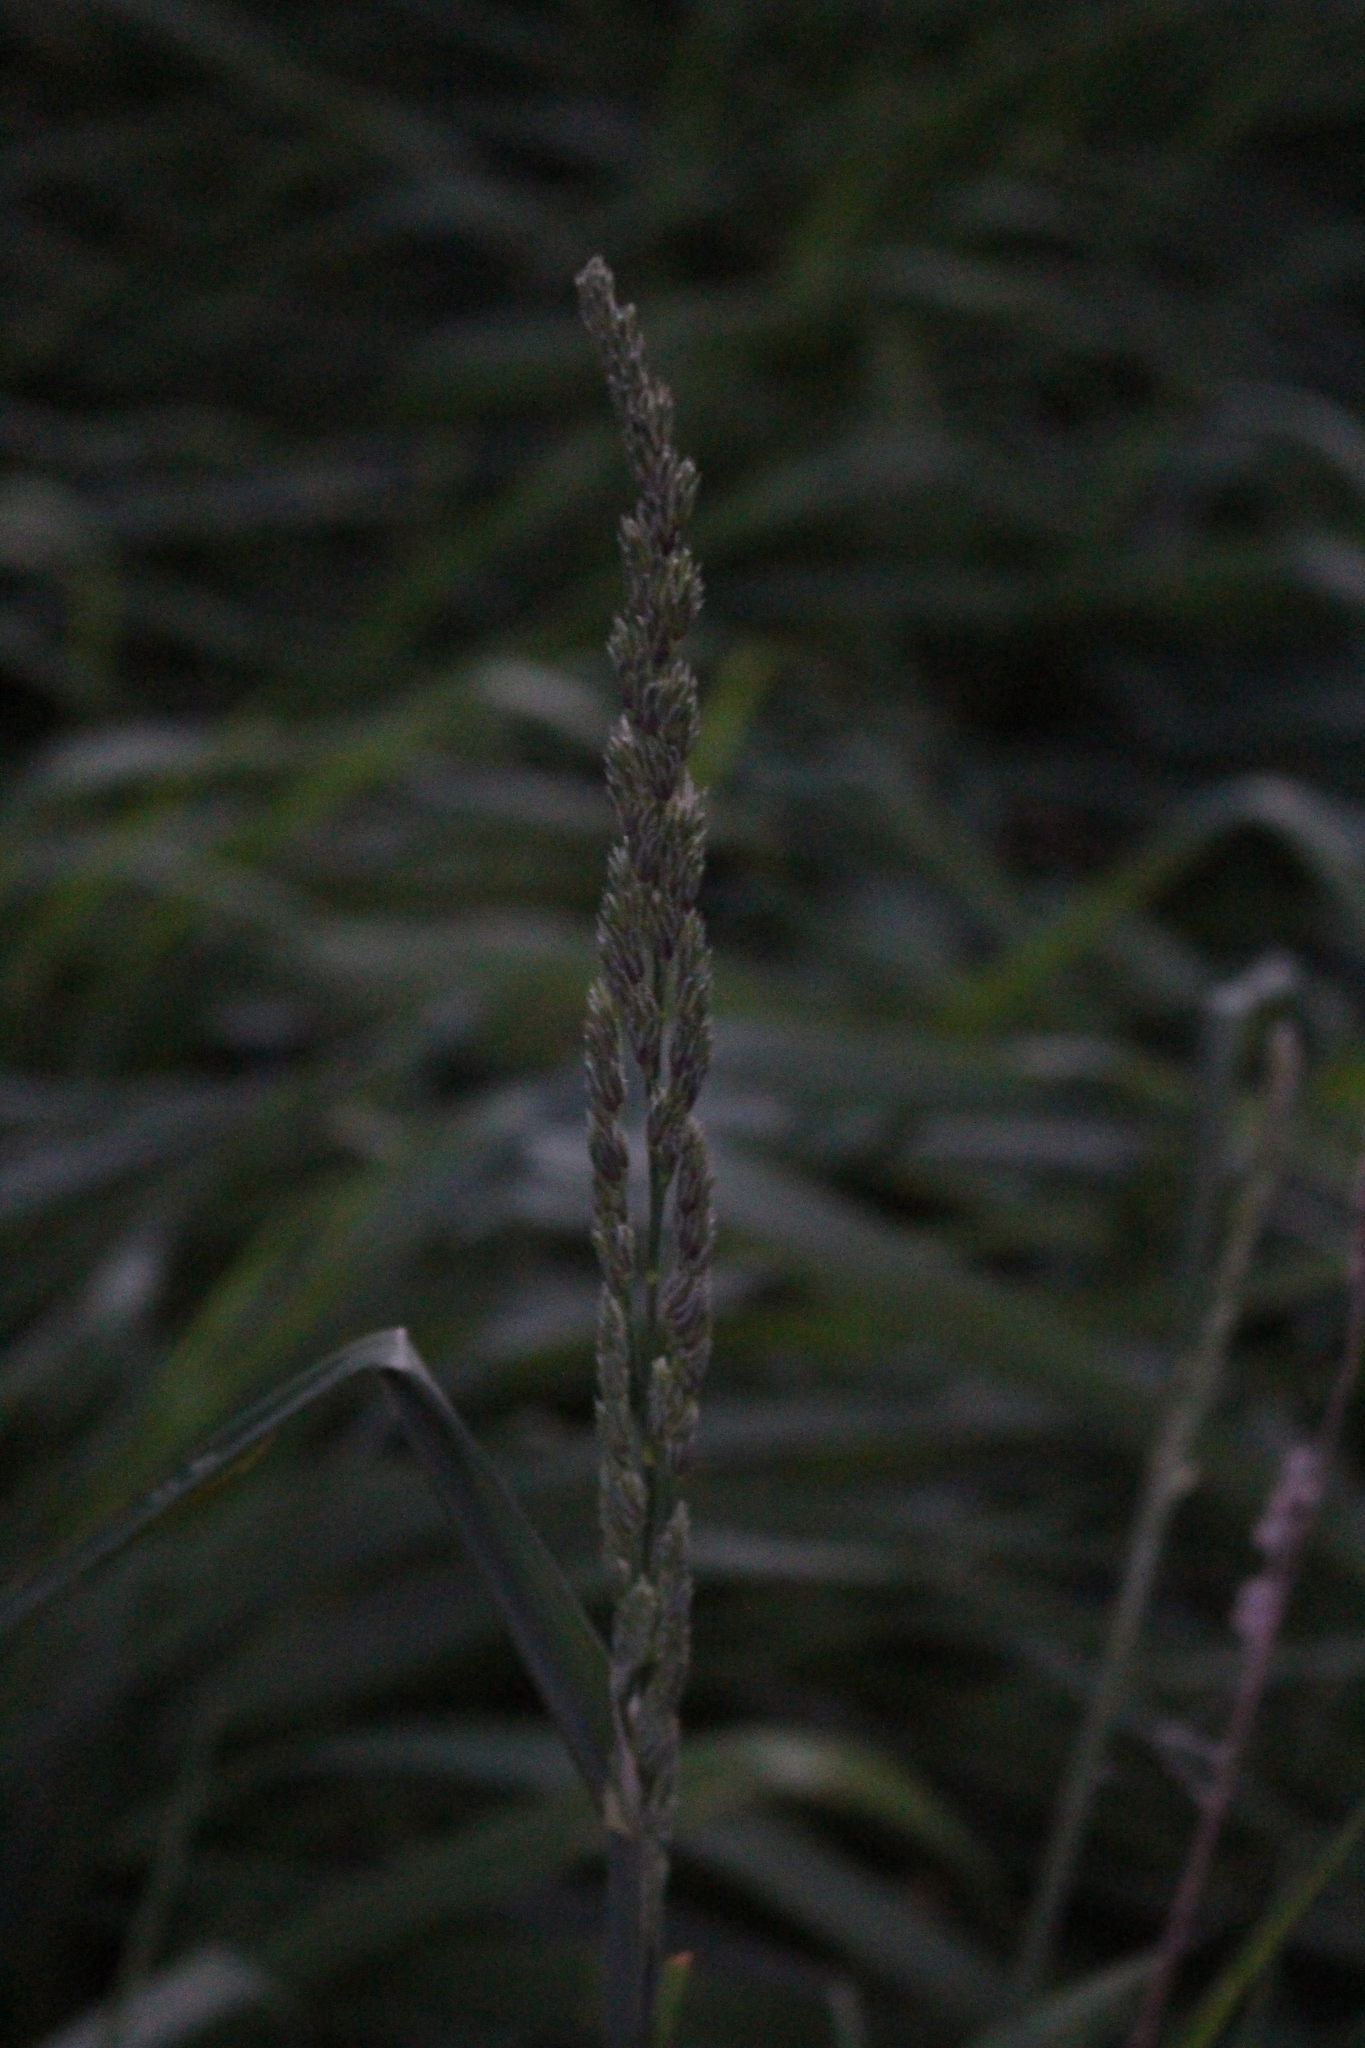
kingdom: Plantae
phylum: Tracheophyta
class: Liliopsida
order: Poales
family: Poaceae
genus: Dactylis
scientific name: Dactylis glomerata
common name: Orchardgrass
